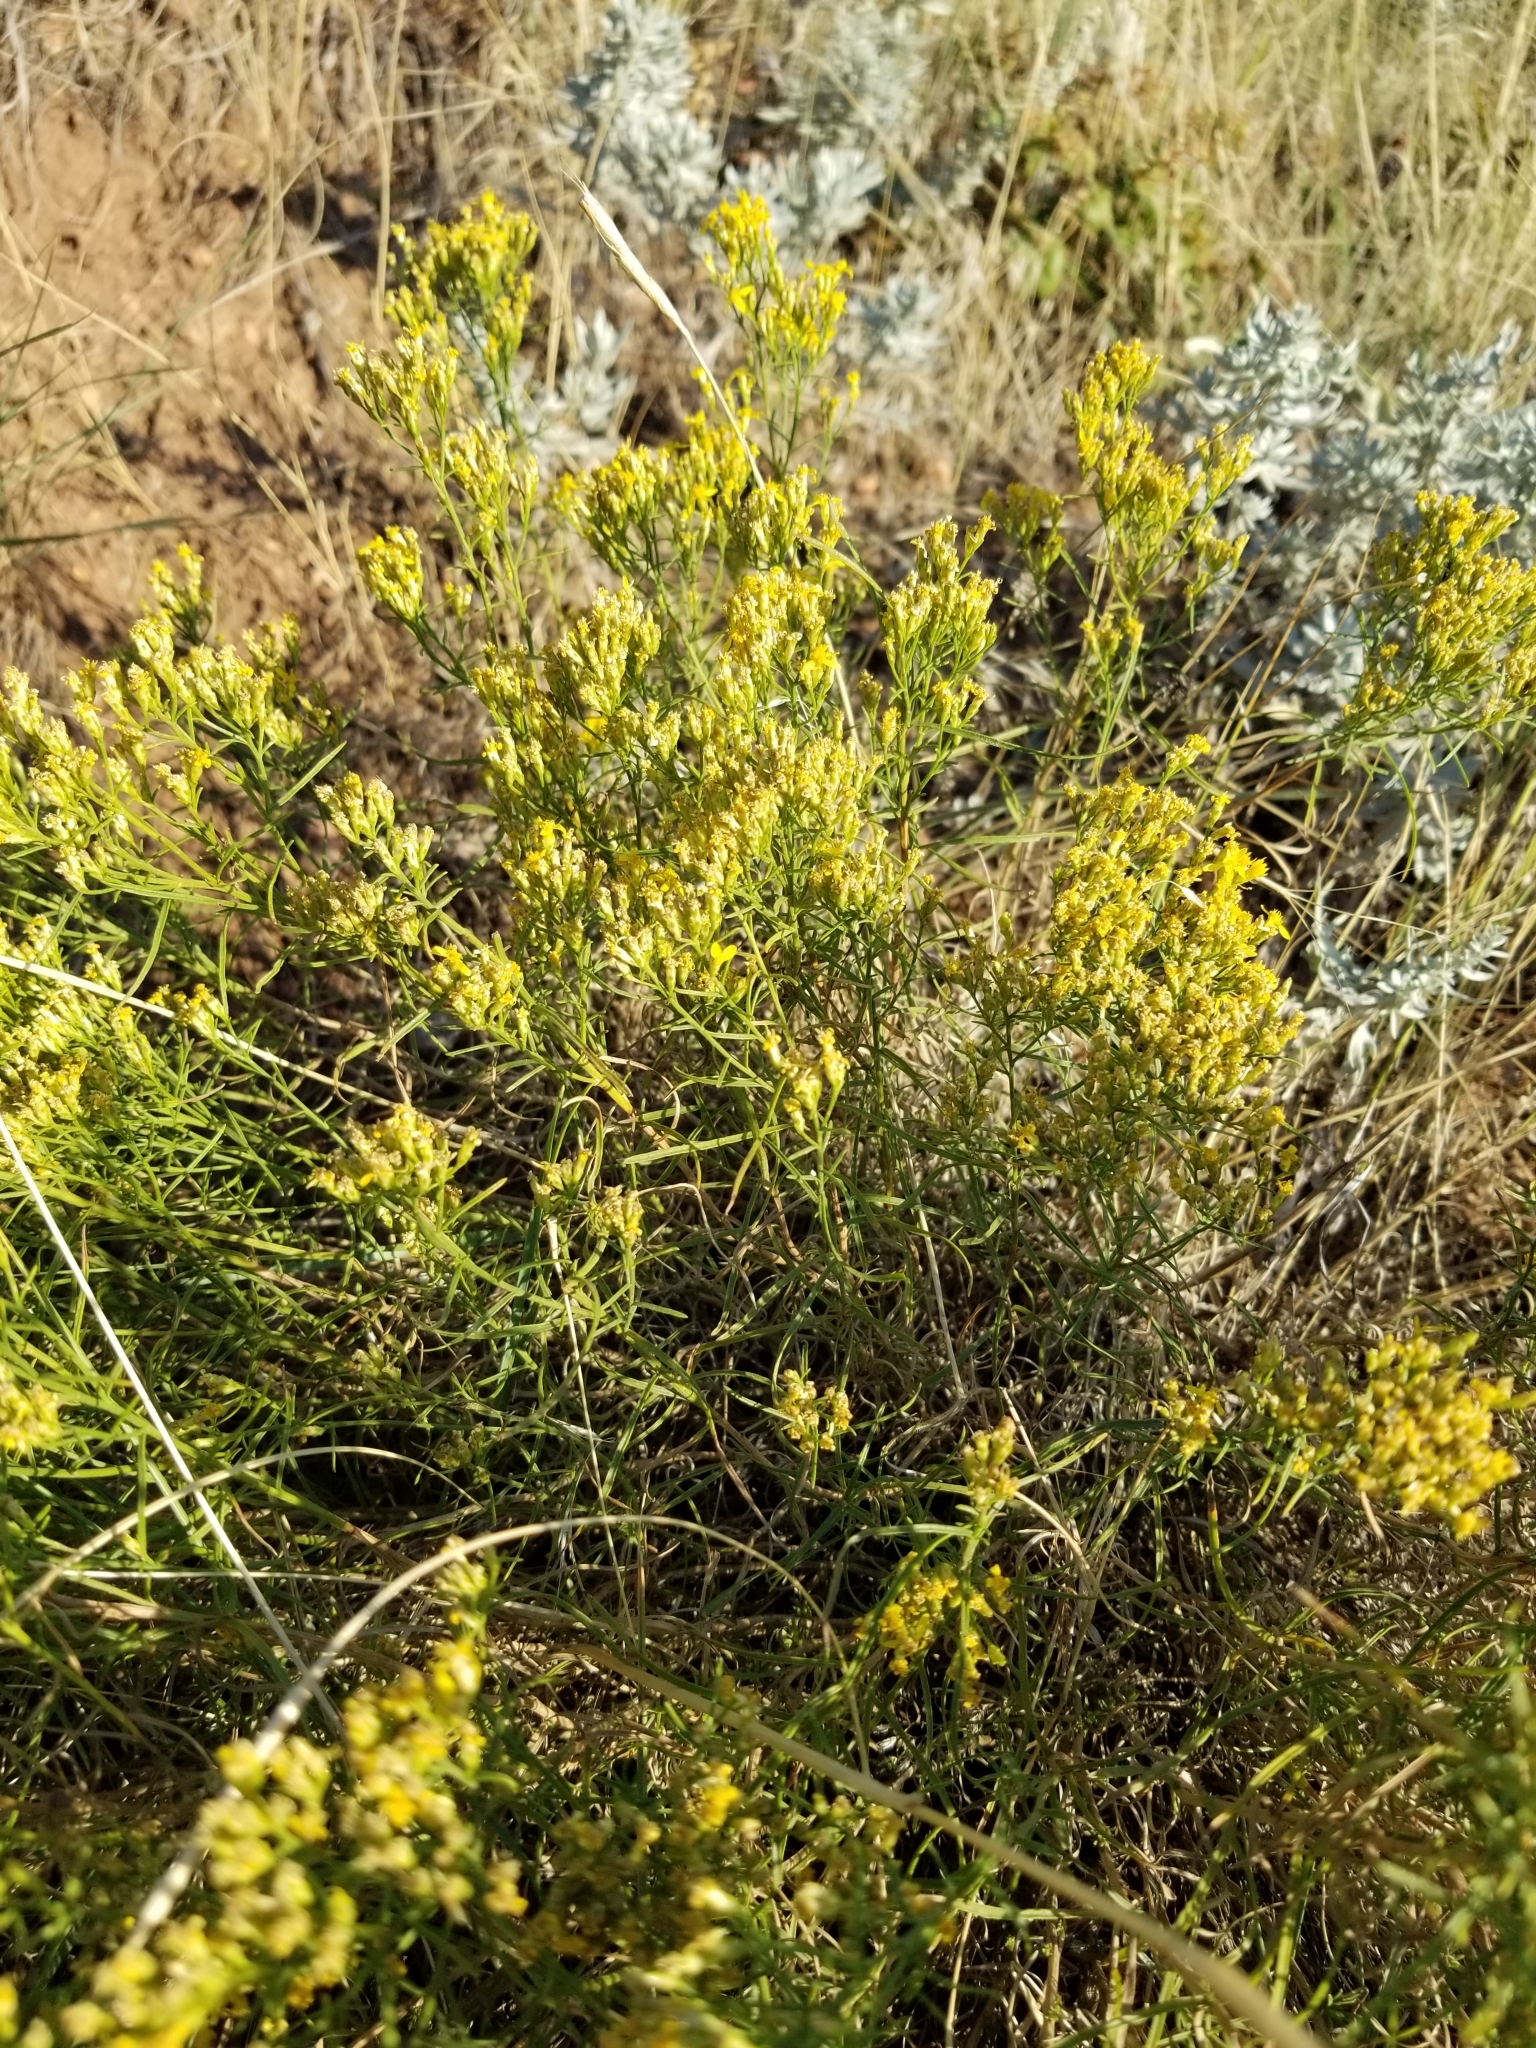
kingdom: Plantae
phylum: Tracheophyta
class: Magnoliopsida
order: Asterales
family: Asteraceae
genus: Gutierrezia
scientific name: Gutierrezia sarothrae
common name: Broom snakeweed
